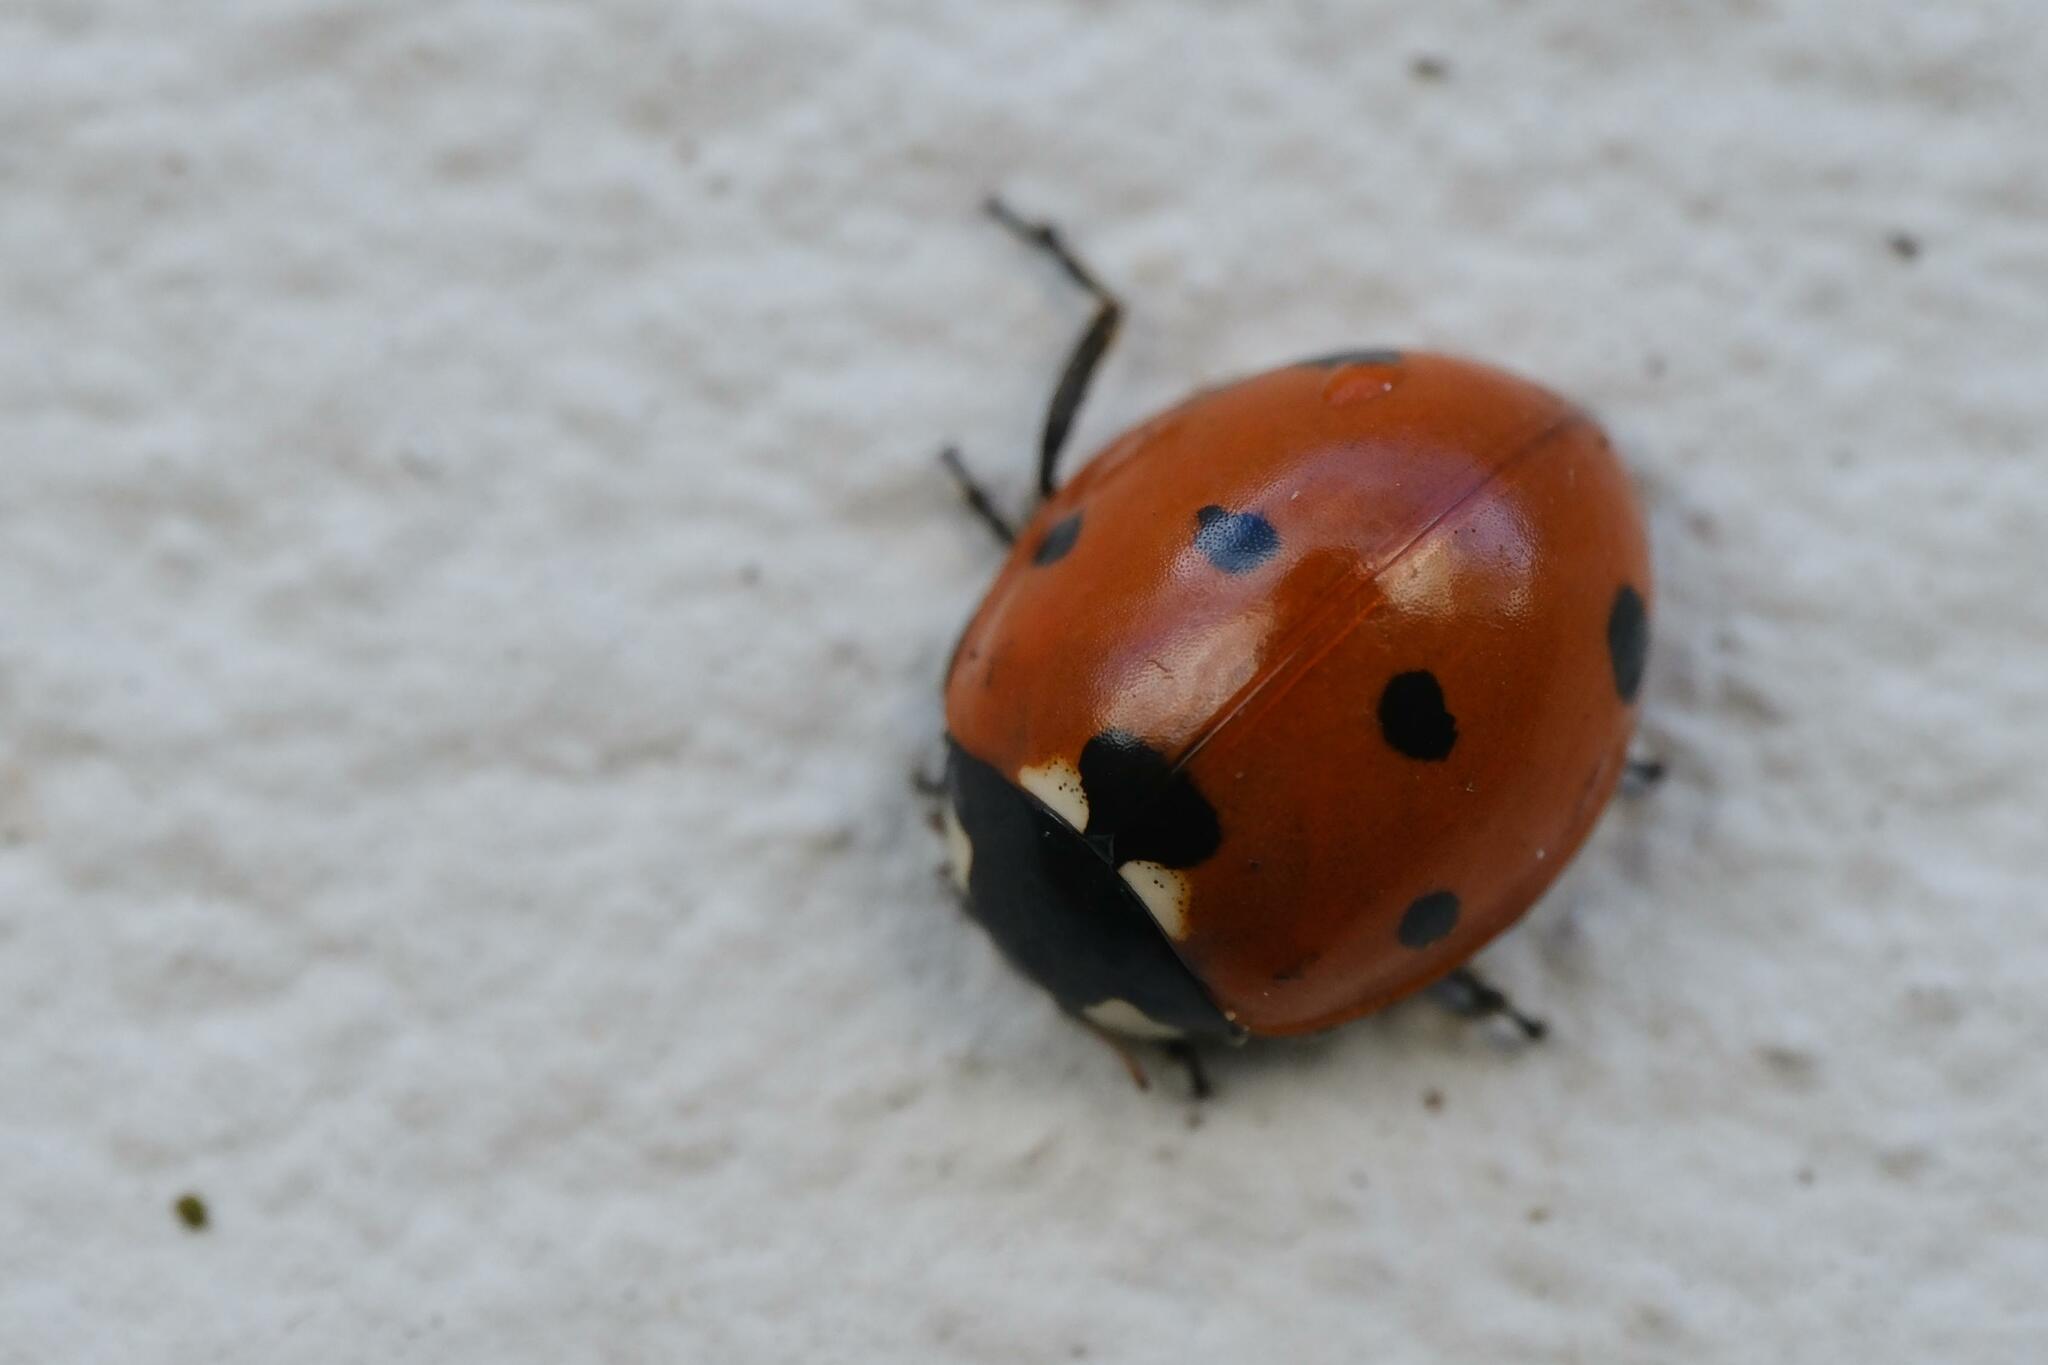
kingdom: Animalia
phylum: Arthropoda
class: Insecta
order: Coleoptera
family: Coccinellidae
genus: Coccinella
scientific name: Coccinella septempunctata
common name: Sevenspotted lady beetle
